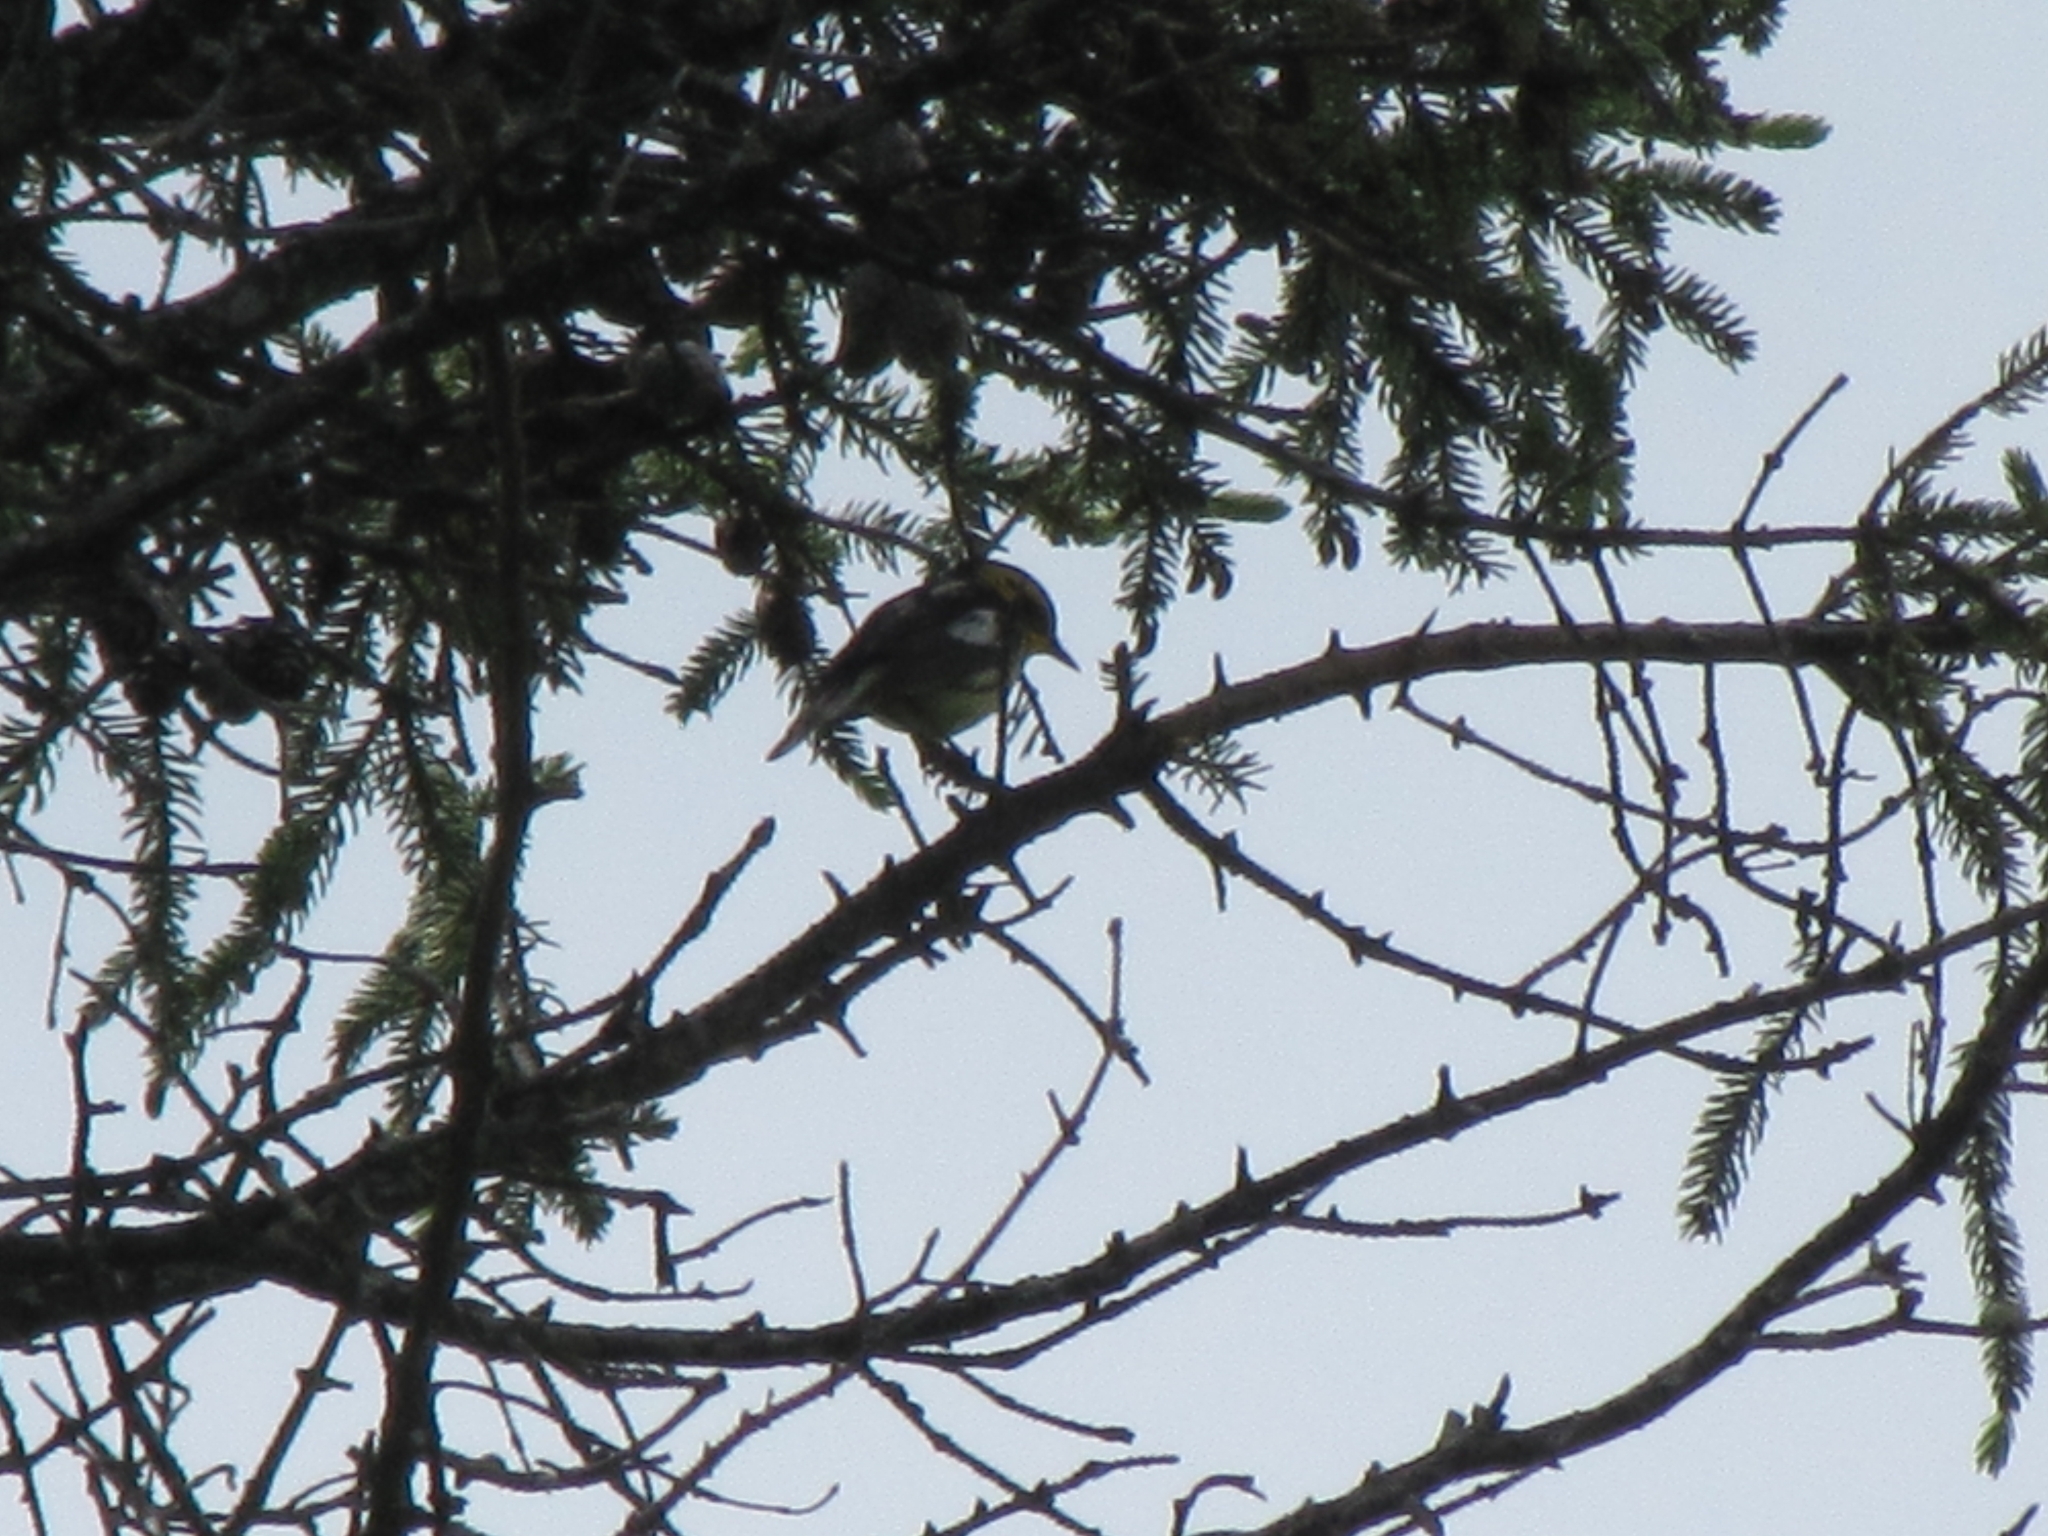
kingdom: Animalia
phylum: Chordata
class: Aves
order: Passeriformes
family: Parulidae
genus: Setophaga
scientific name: Setophaga fusca
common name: Blackburnian warbler
